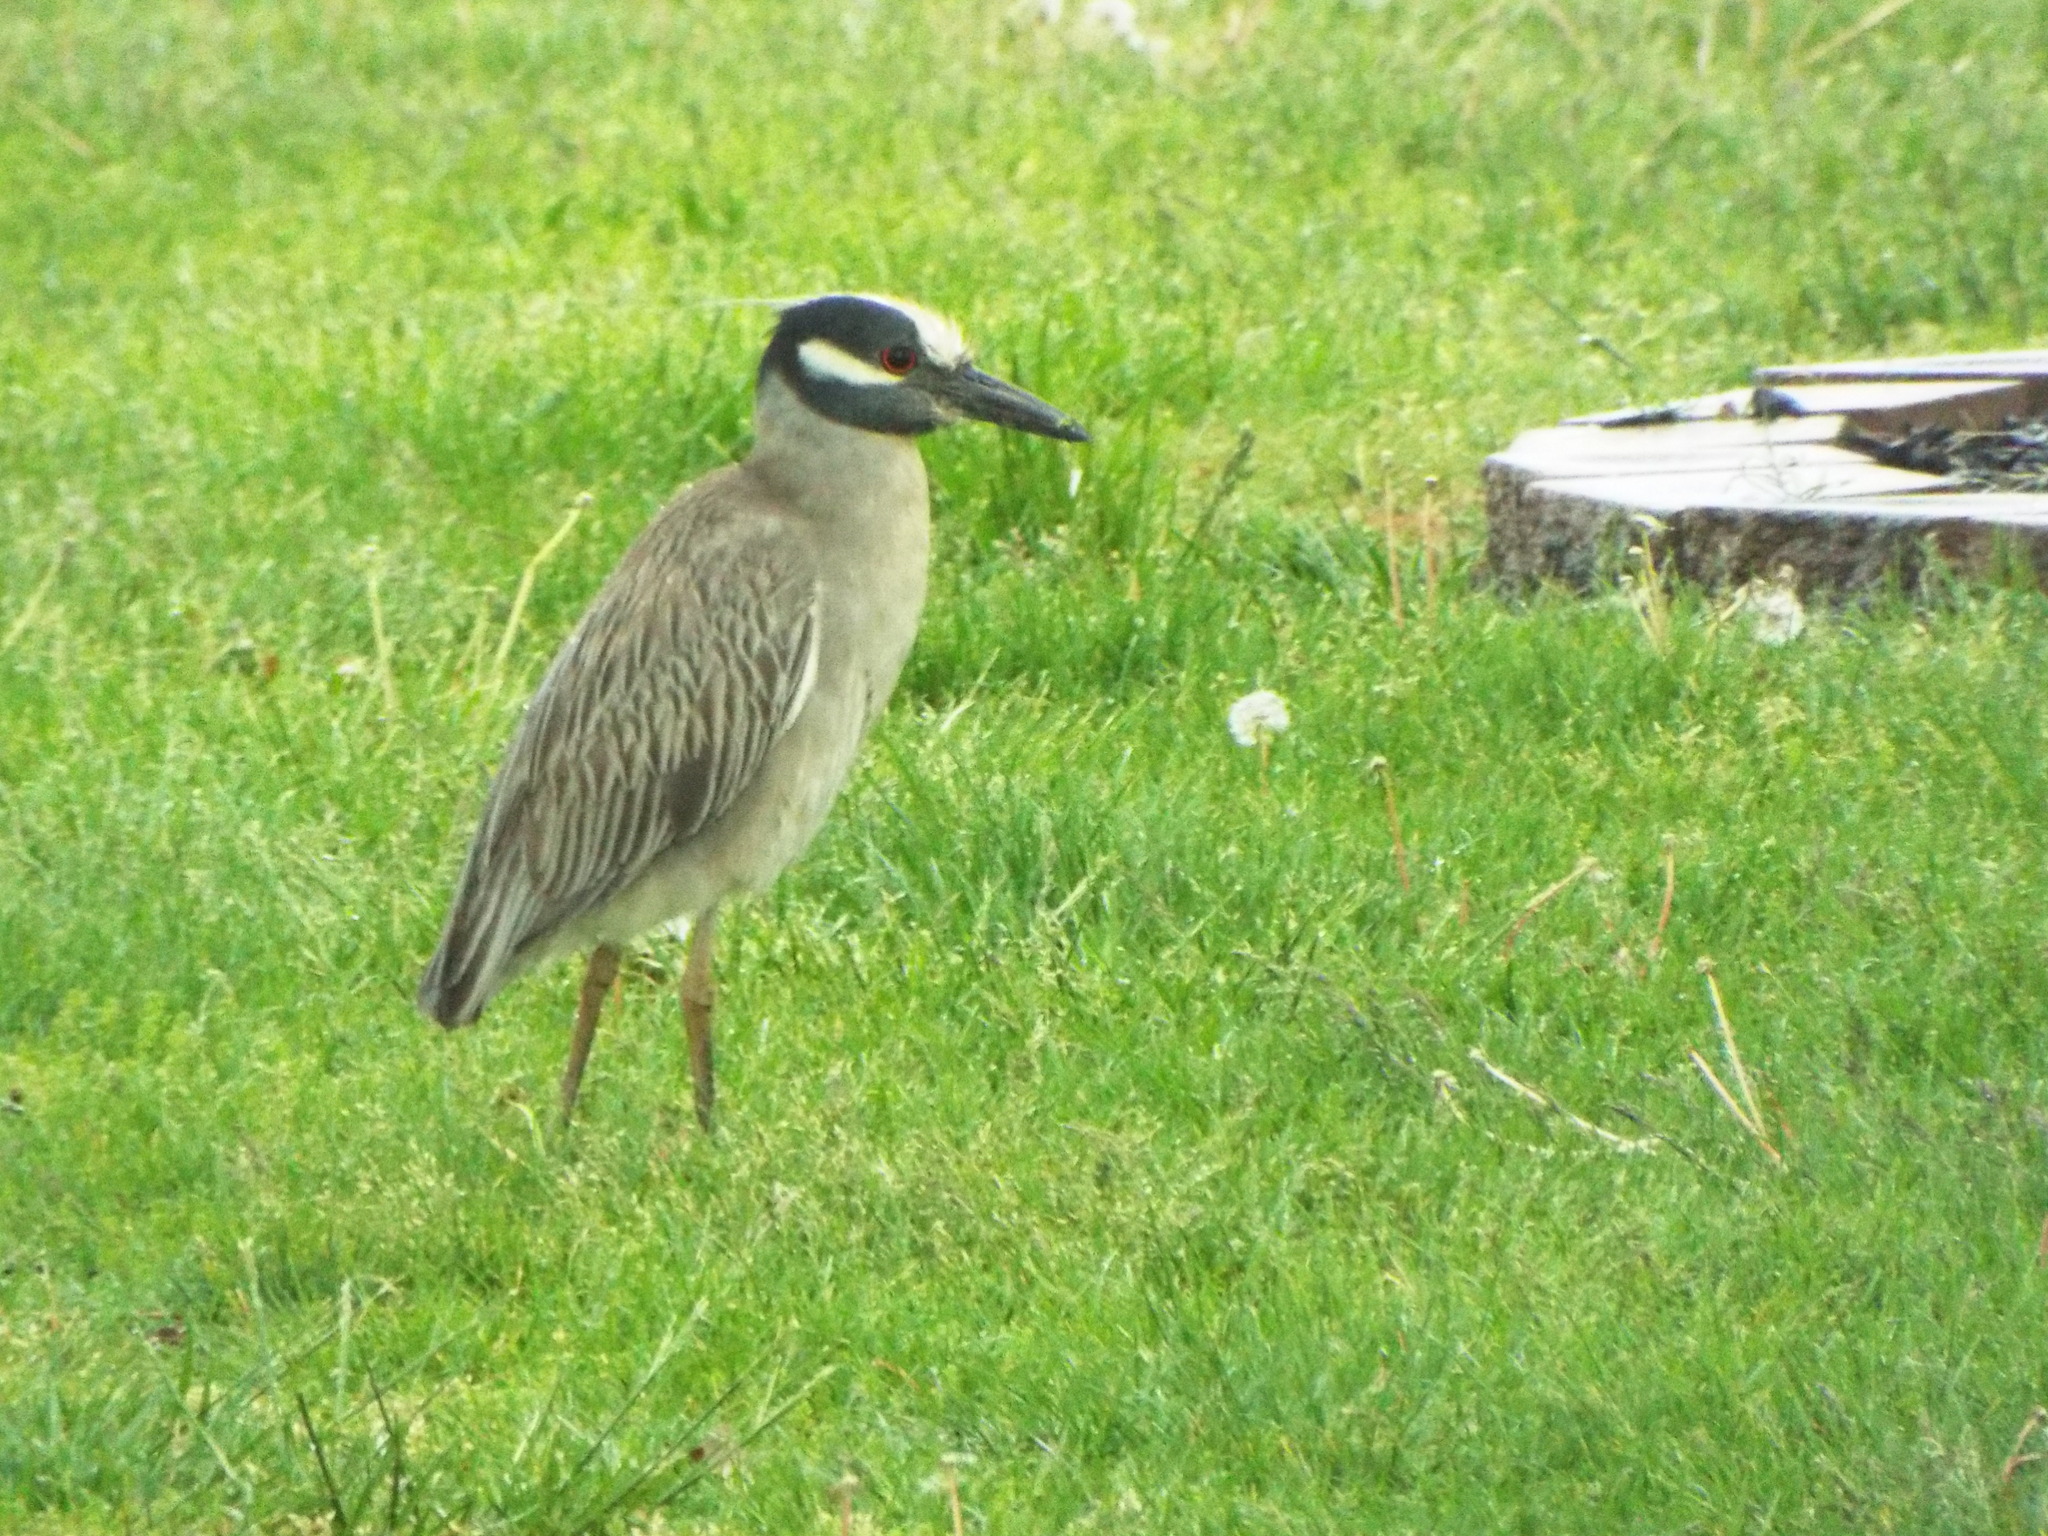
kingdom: Animalia
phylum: Chordata
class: Aves
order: Pelecaniformes
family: Ardeidae
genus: Nyctanassa
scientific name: Nyctanassa violacea
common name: Yellow-crowned night heron
